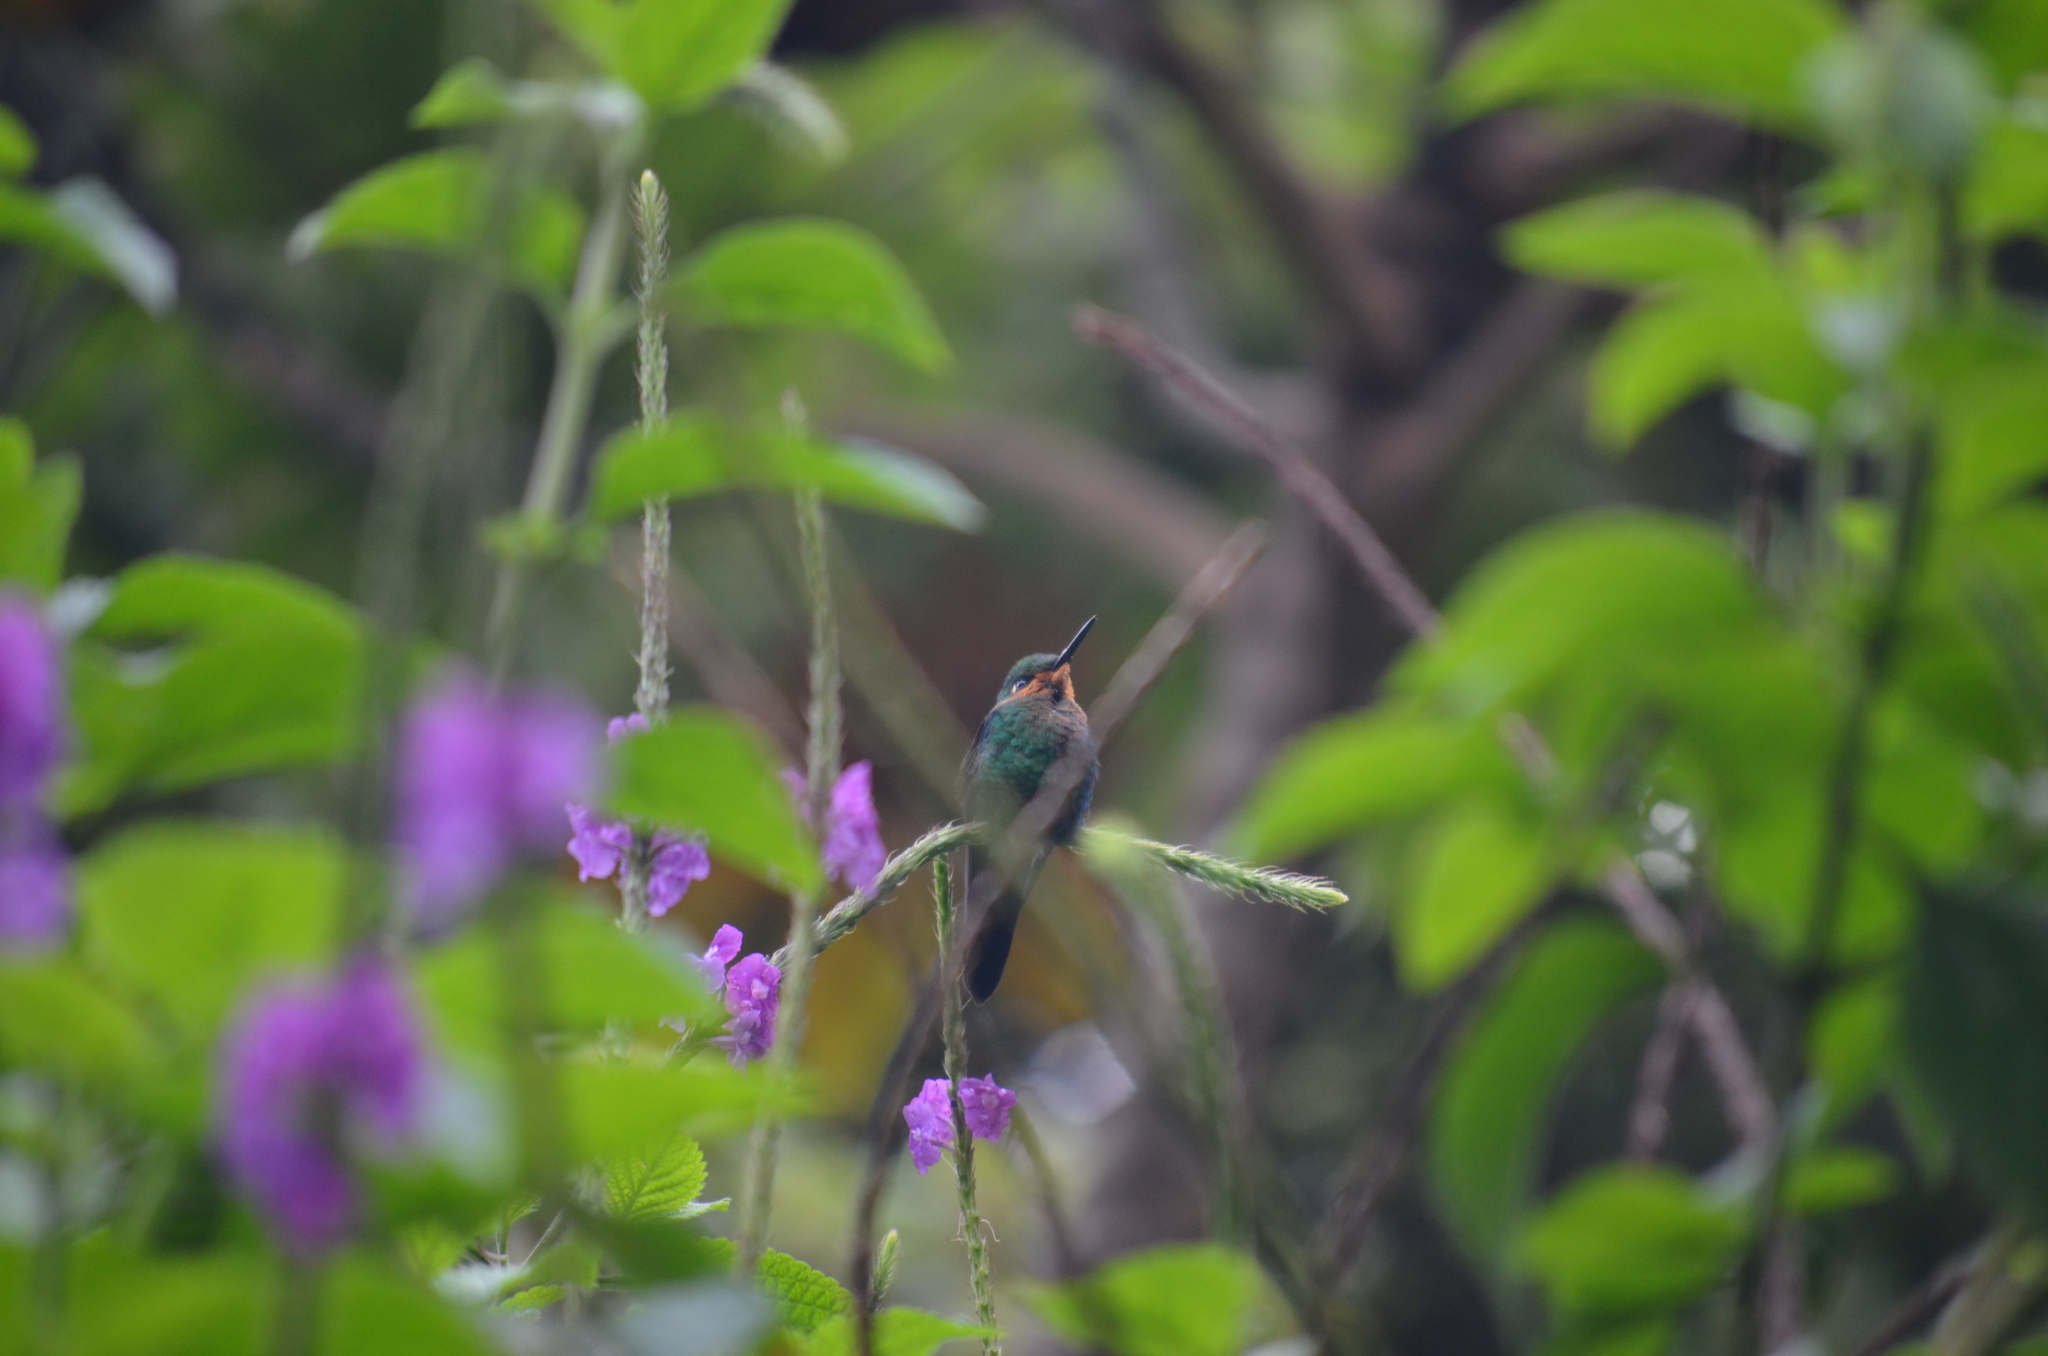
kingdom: Animalia
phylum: Chordata
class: Aves
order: Apodiformes
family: Trochilidae
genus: Heliodoxa
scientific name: Heliodoxa jacula
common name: Green-crowned brilliant
